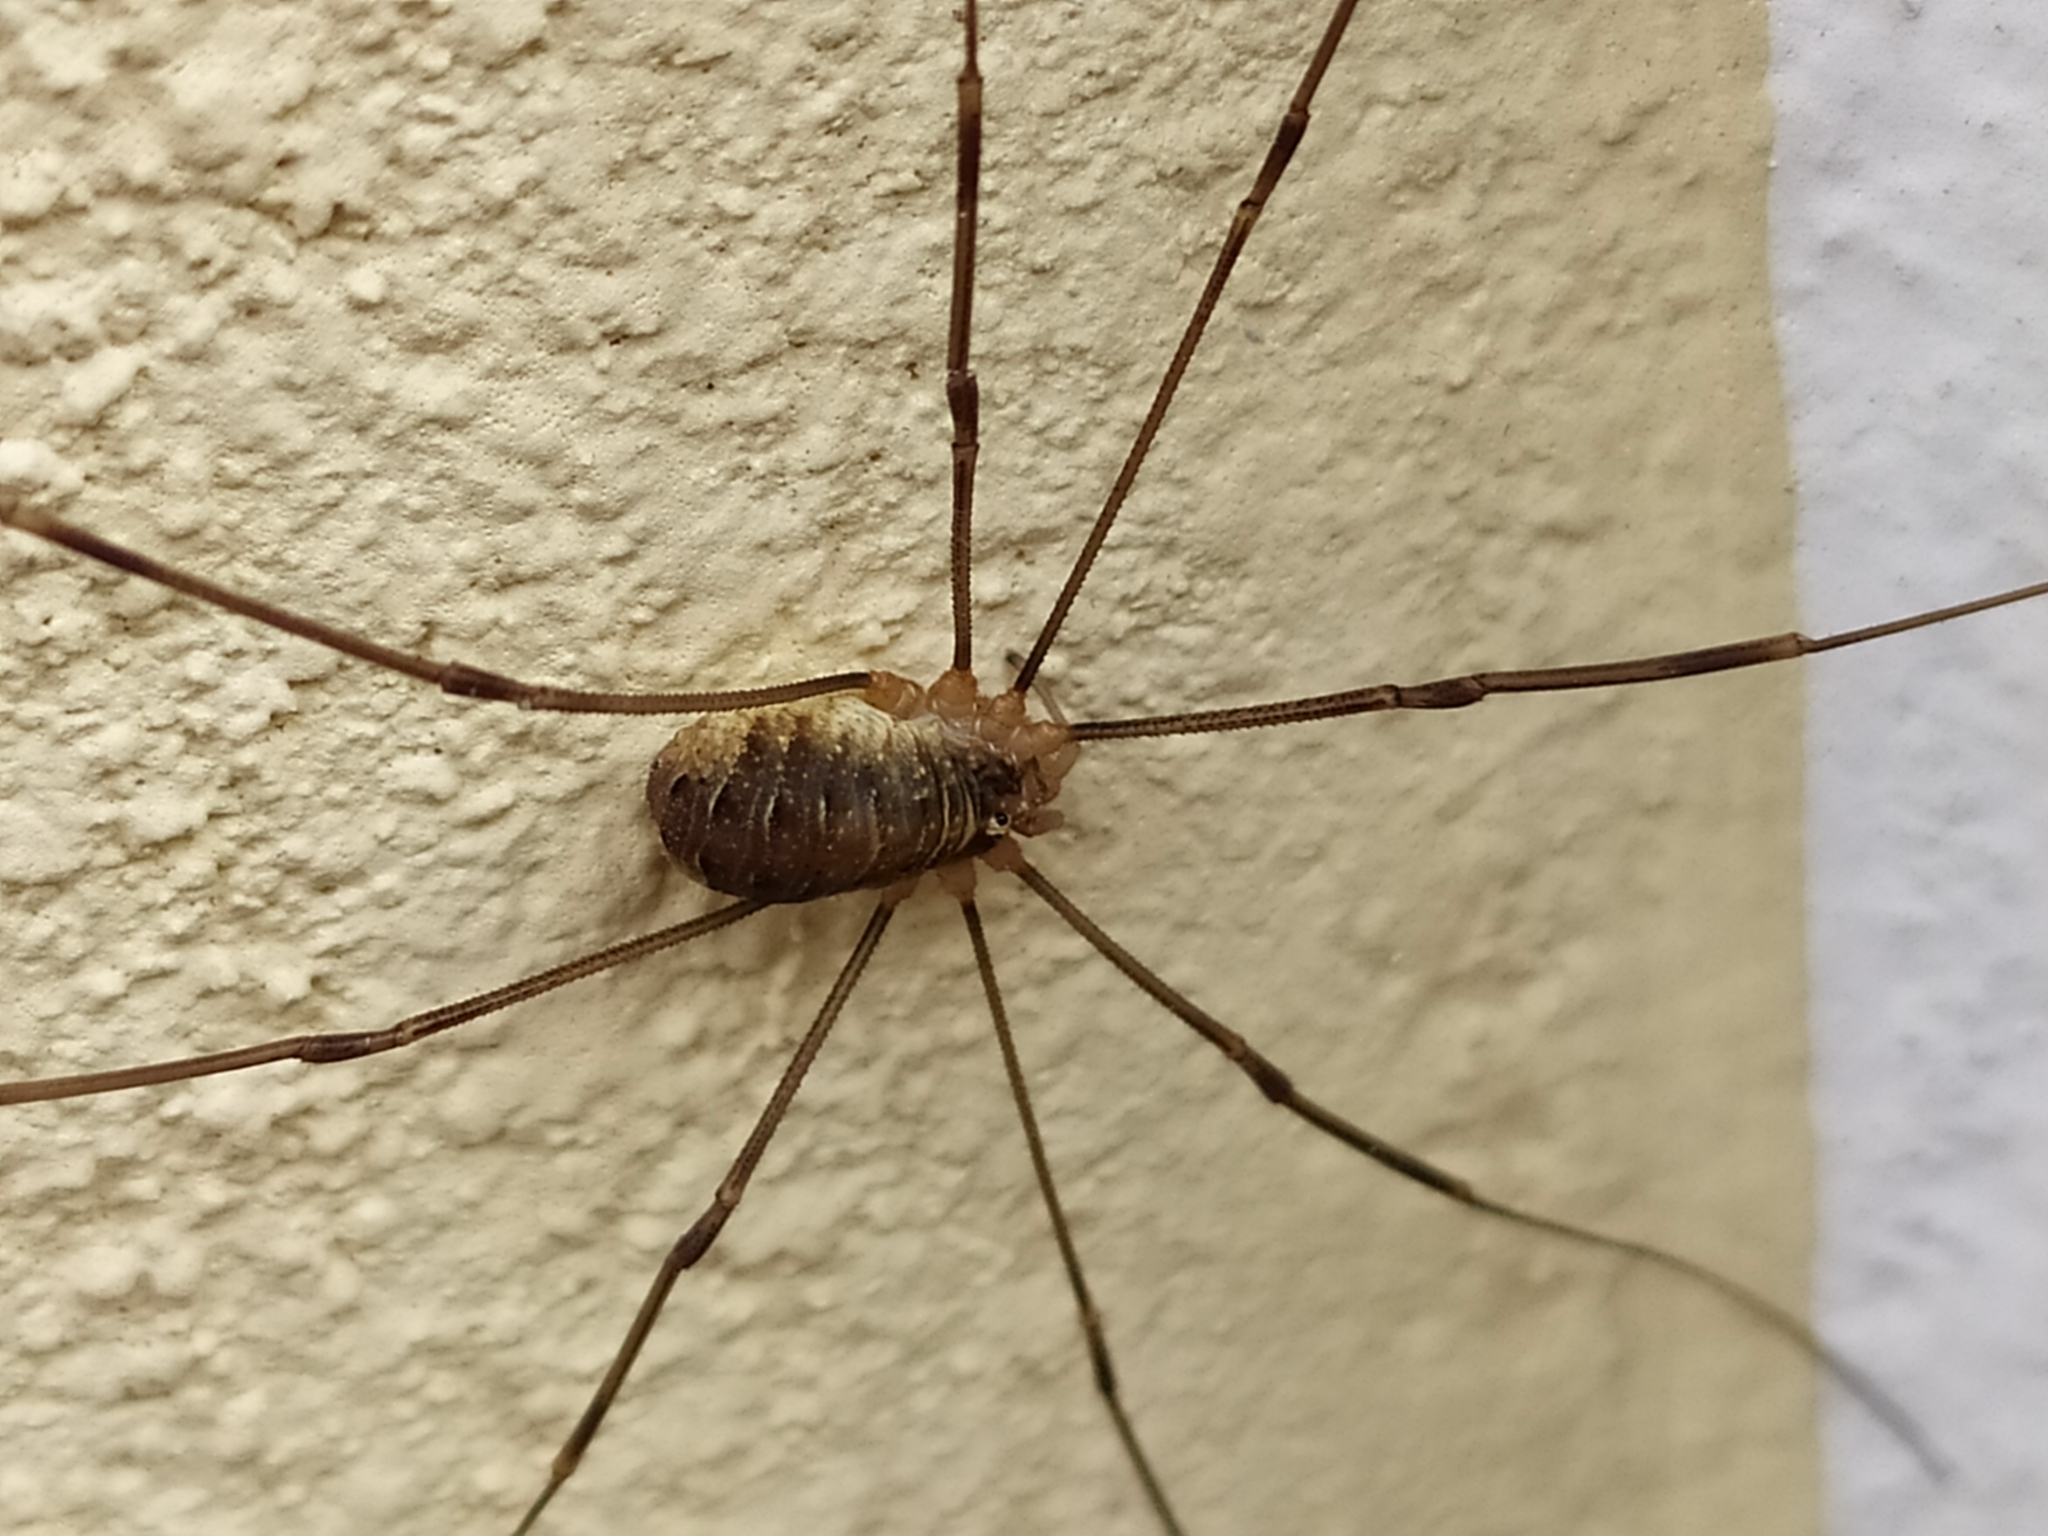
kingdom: Animalia
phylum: Arthropoda
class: Arachnida
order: Opiliones
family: Phalangiidae
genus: Opilio
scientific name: Opilio canestrinii
